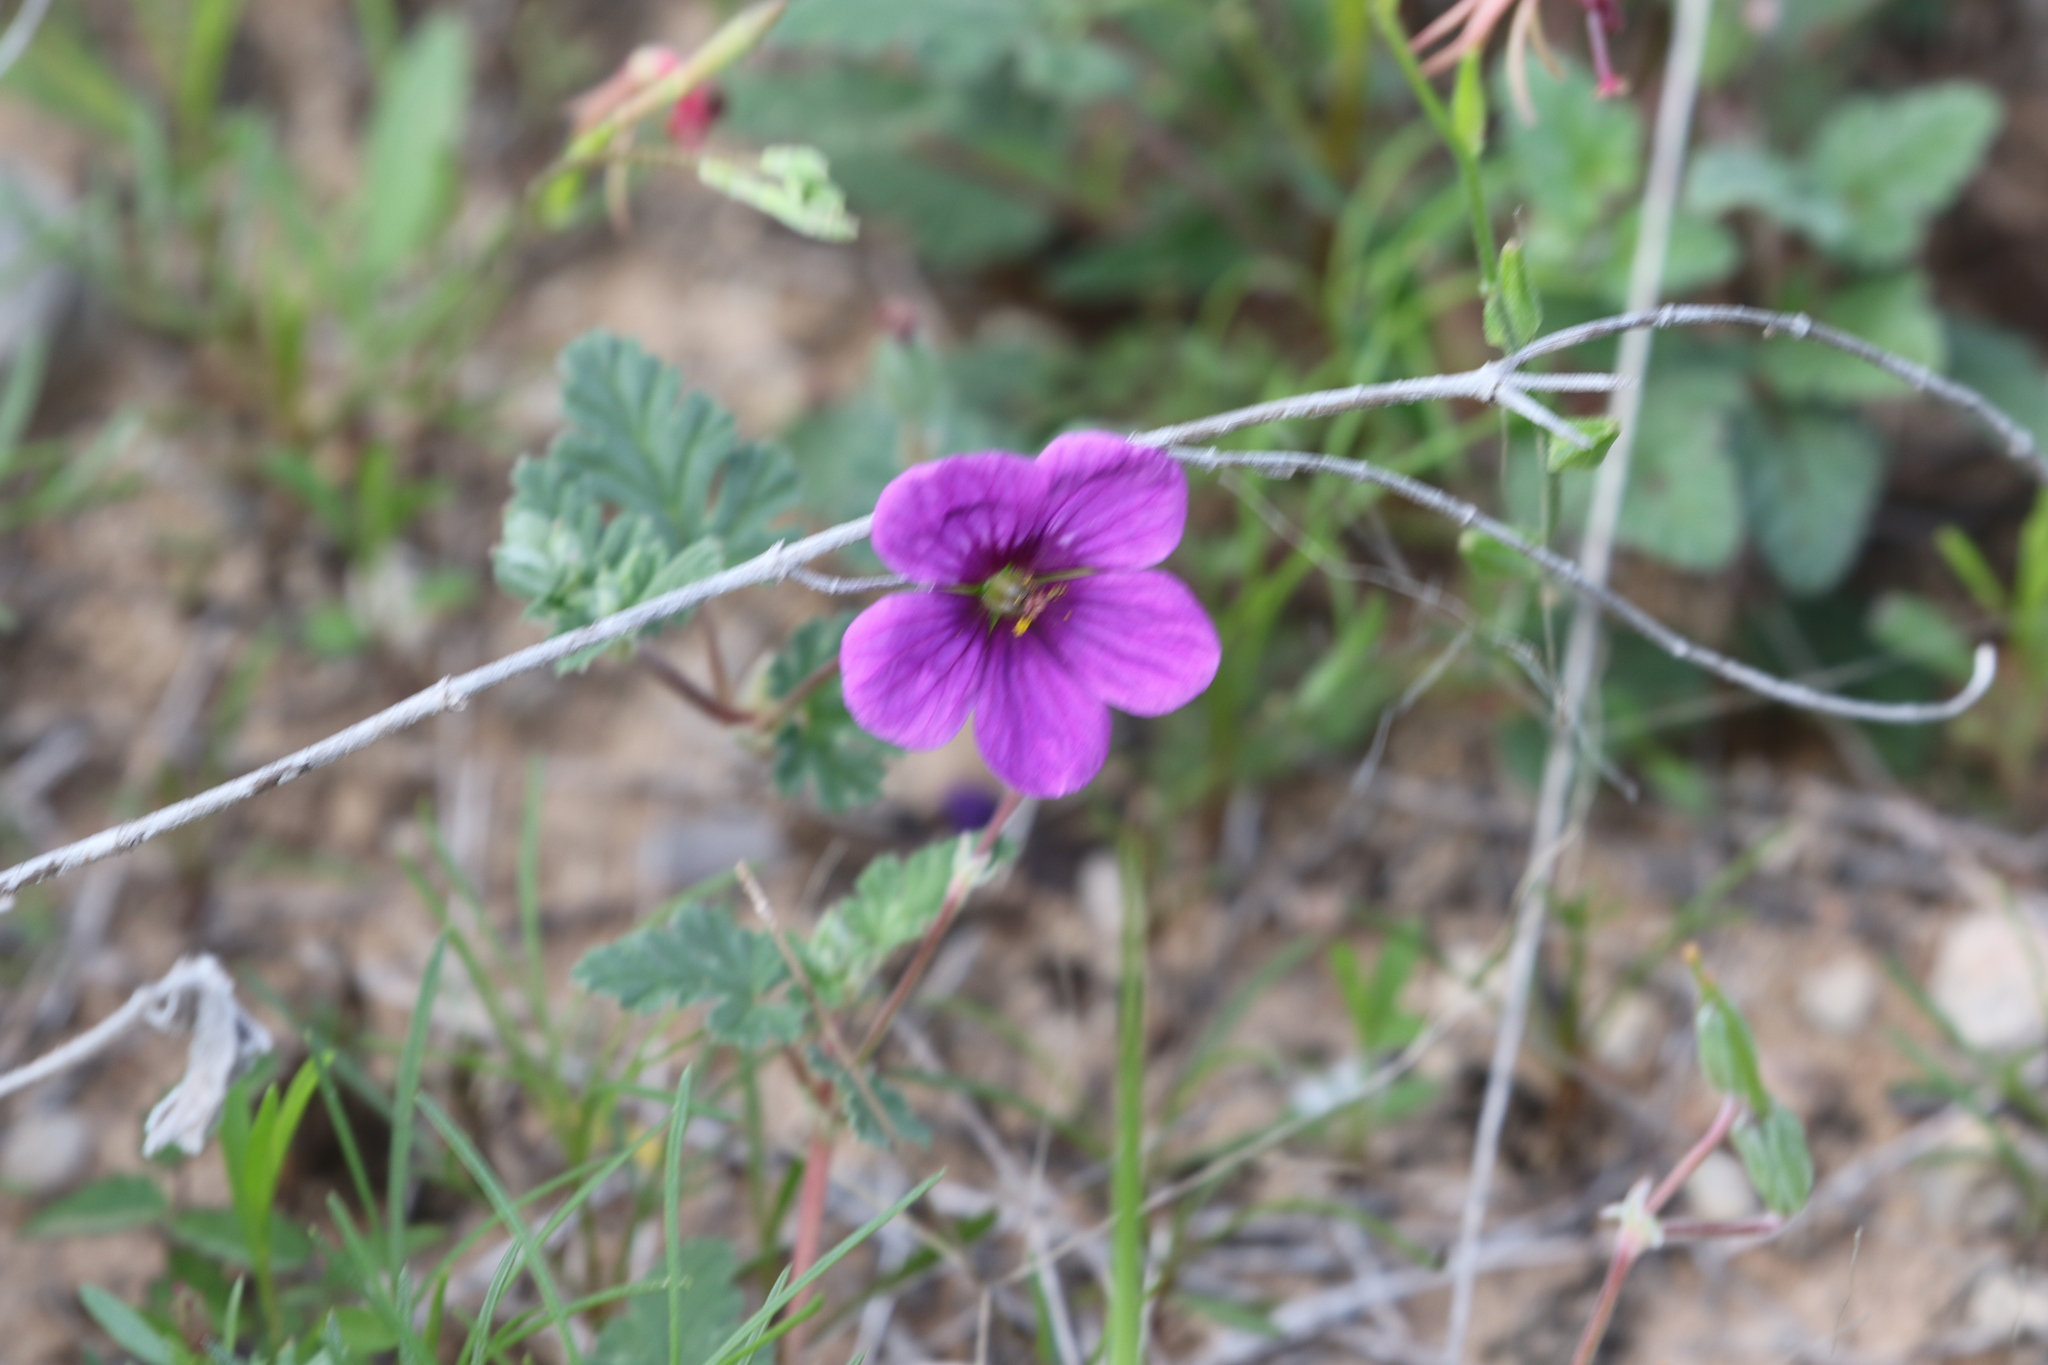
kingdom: Plantae
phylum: Tracheophyta
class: Magnoliopsida
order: Geraniales
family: Geraniaceae
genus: Erodium
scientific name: Erodium texanum
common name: Texas stork's-bill
